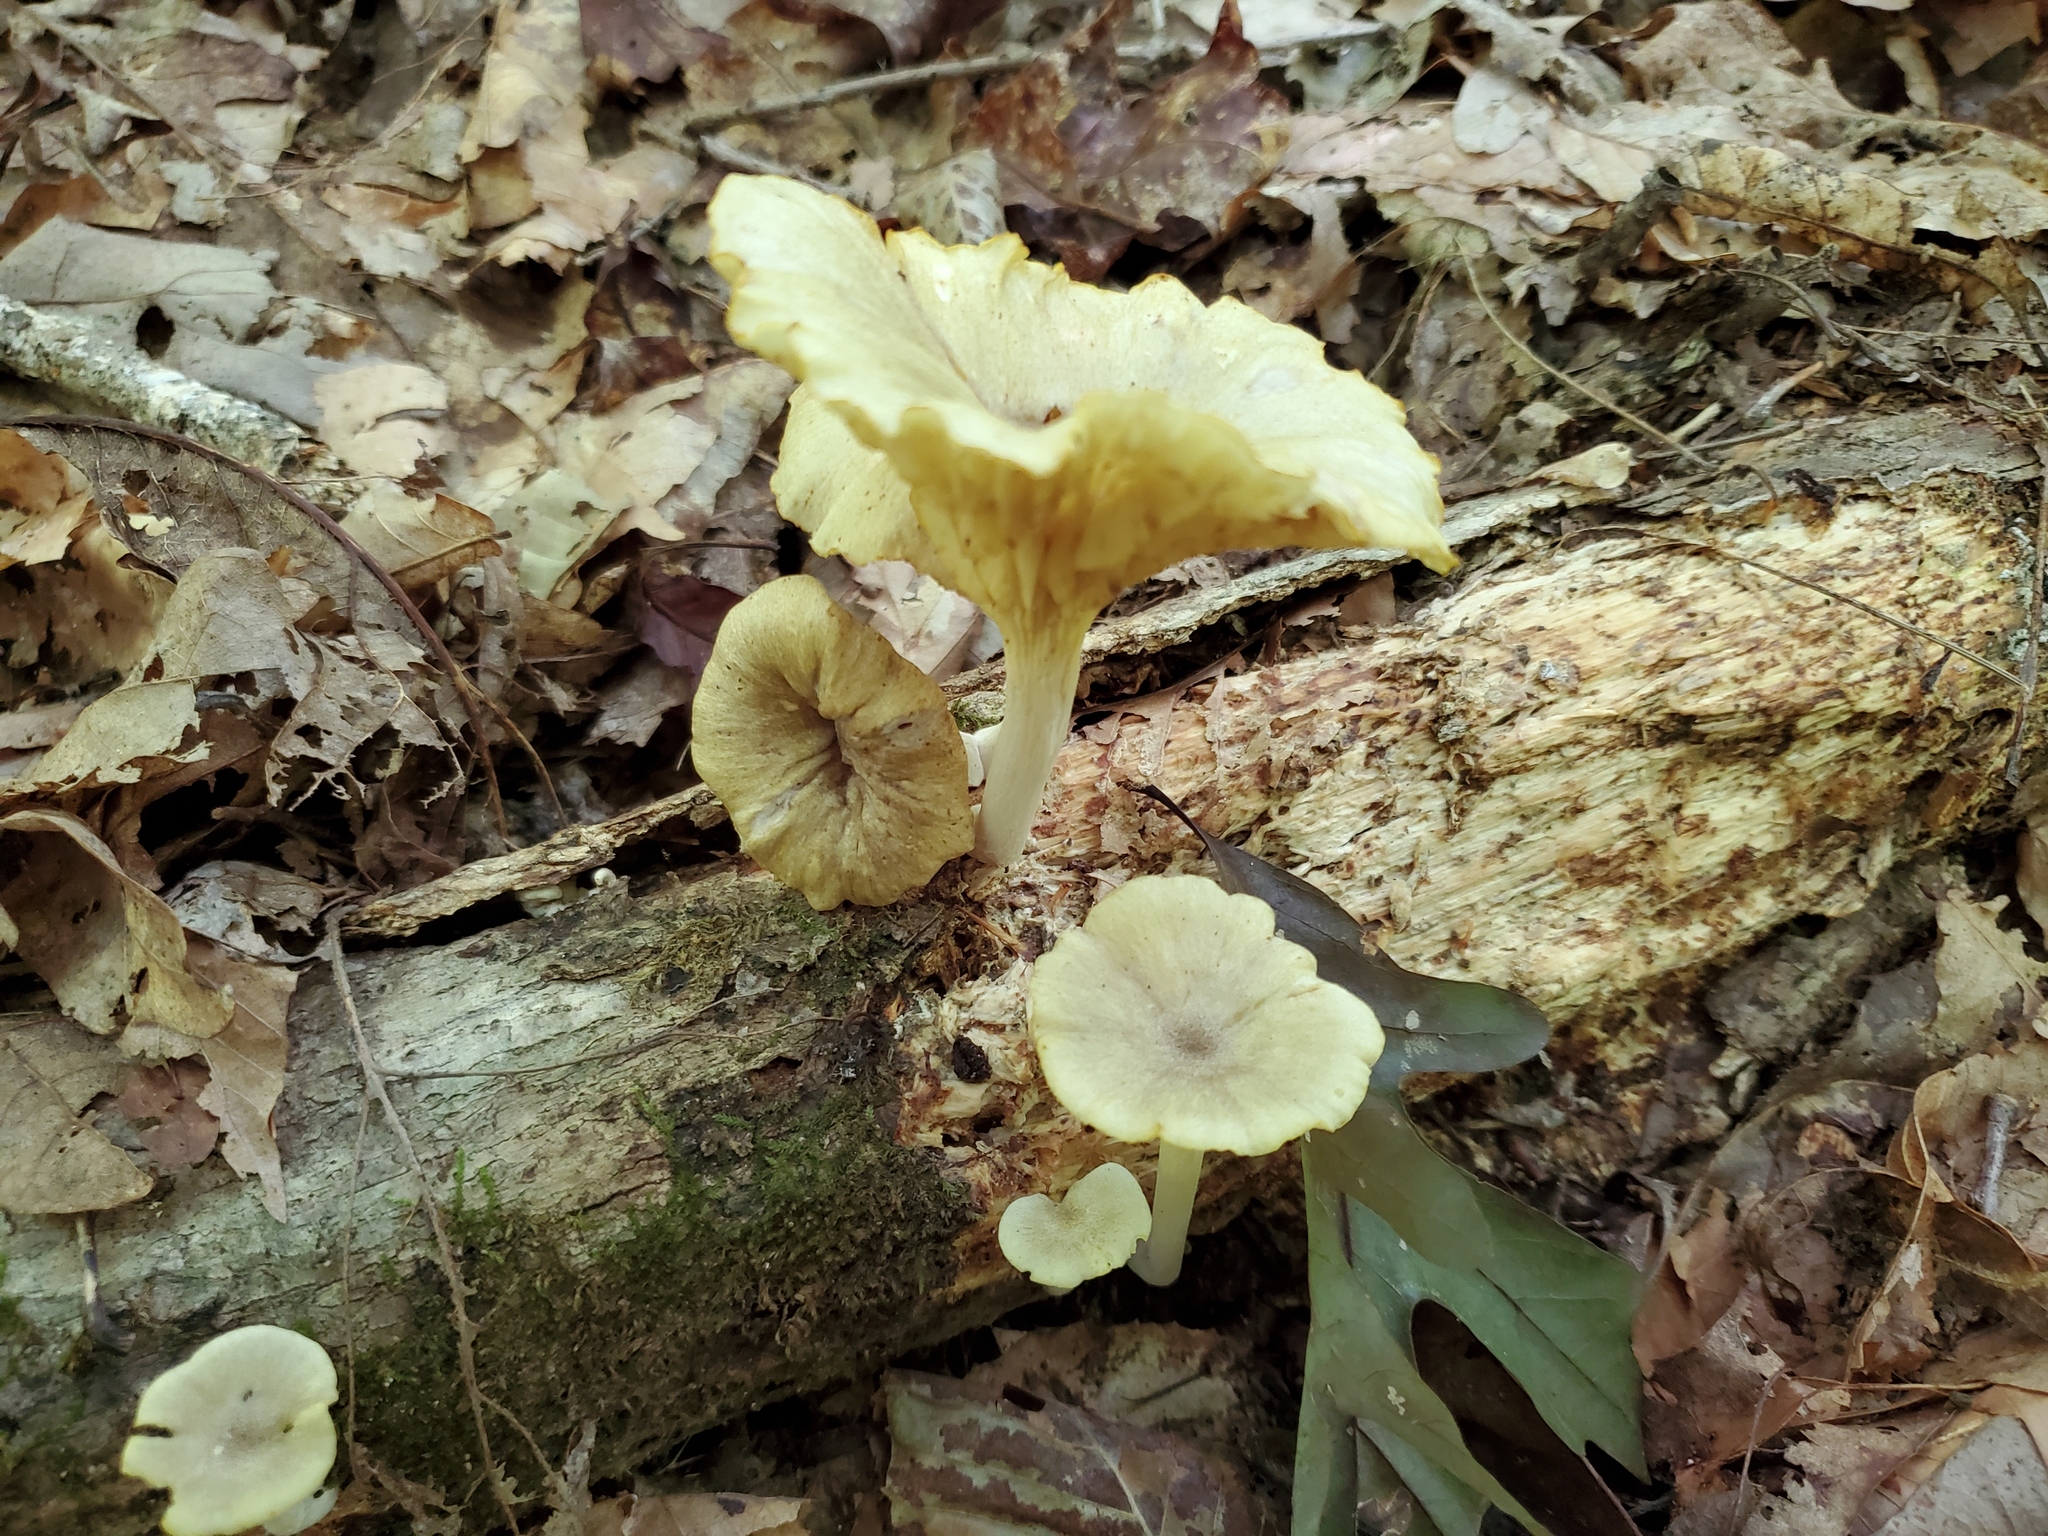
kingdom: Fungi
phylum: Basidiomycota
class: Agaricomycetes
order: Agaricales
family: Marasmiaceae
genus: Gerronema
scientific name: Gerronema strombodes
